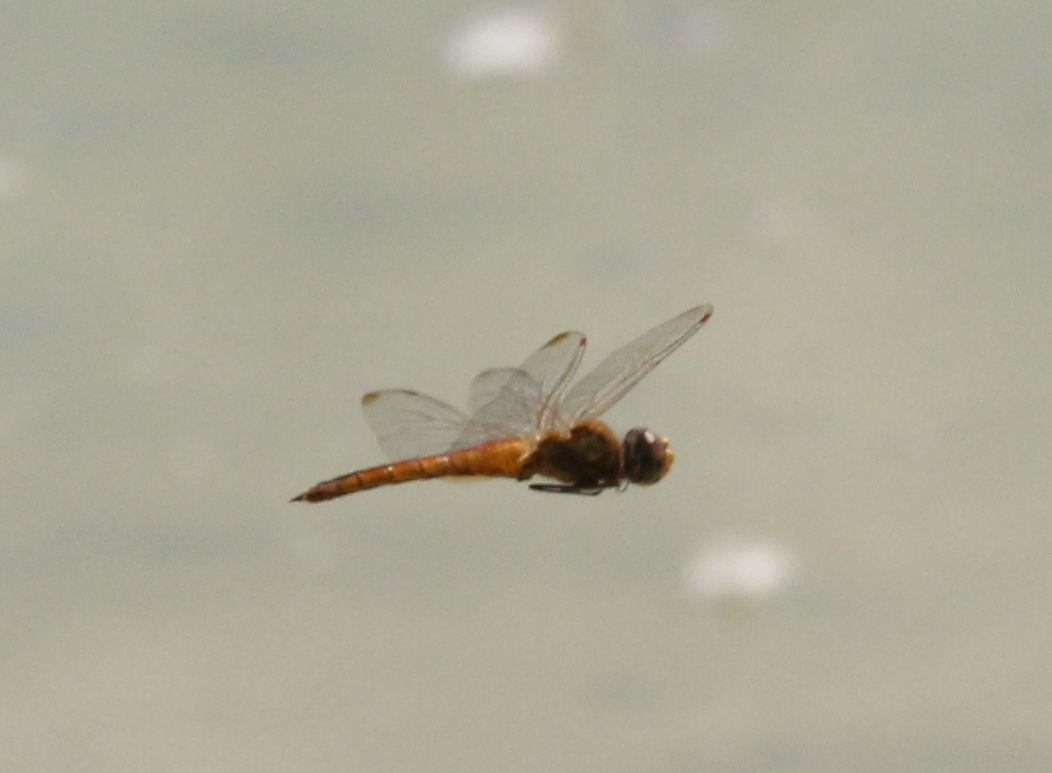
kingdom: Animalia
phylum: Arthropoda
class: Insecta
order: Odonata
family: Libellulidae
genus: Pantala
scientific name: Pantala flavescens
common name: Wandering glider
